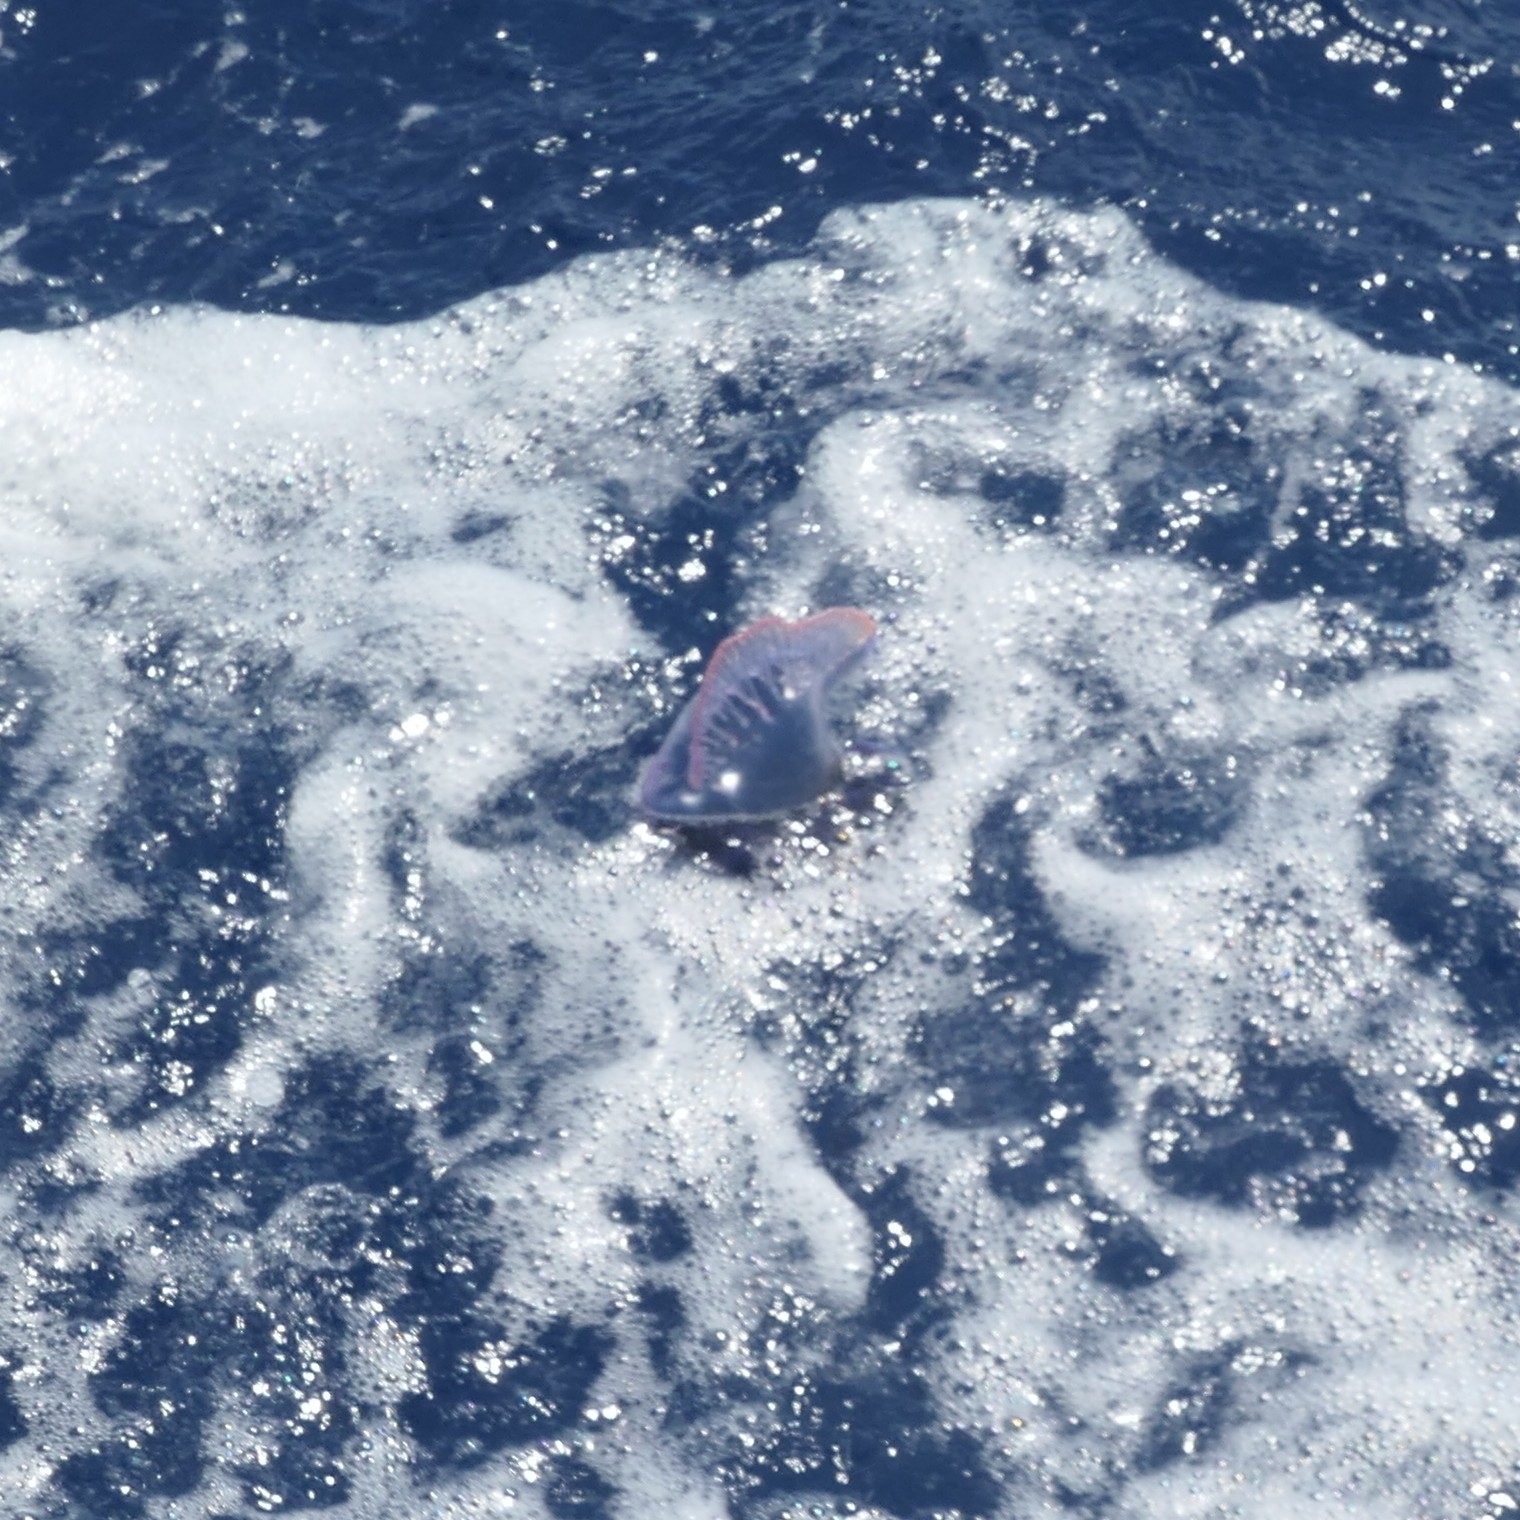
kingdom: Animalia
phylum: Cnidaria
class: Hydrozoa
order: Siphonophorae
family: Physaliidae
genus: Physalia
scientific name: Physalia physalis
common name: Portuguese man-of-war
